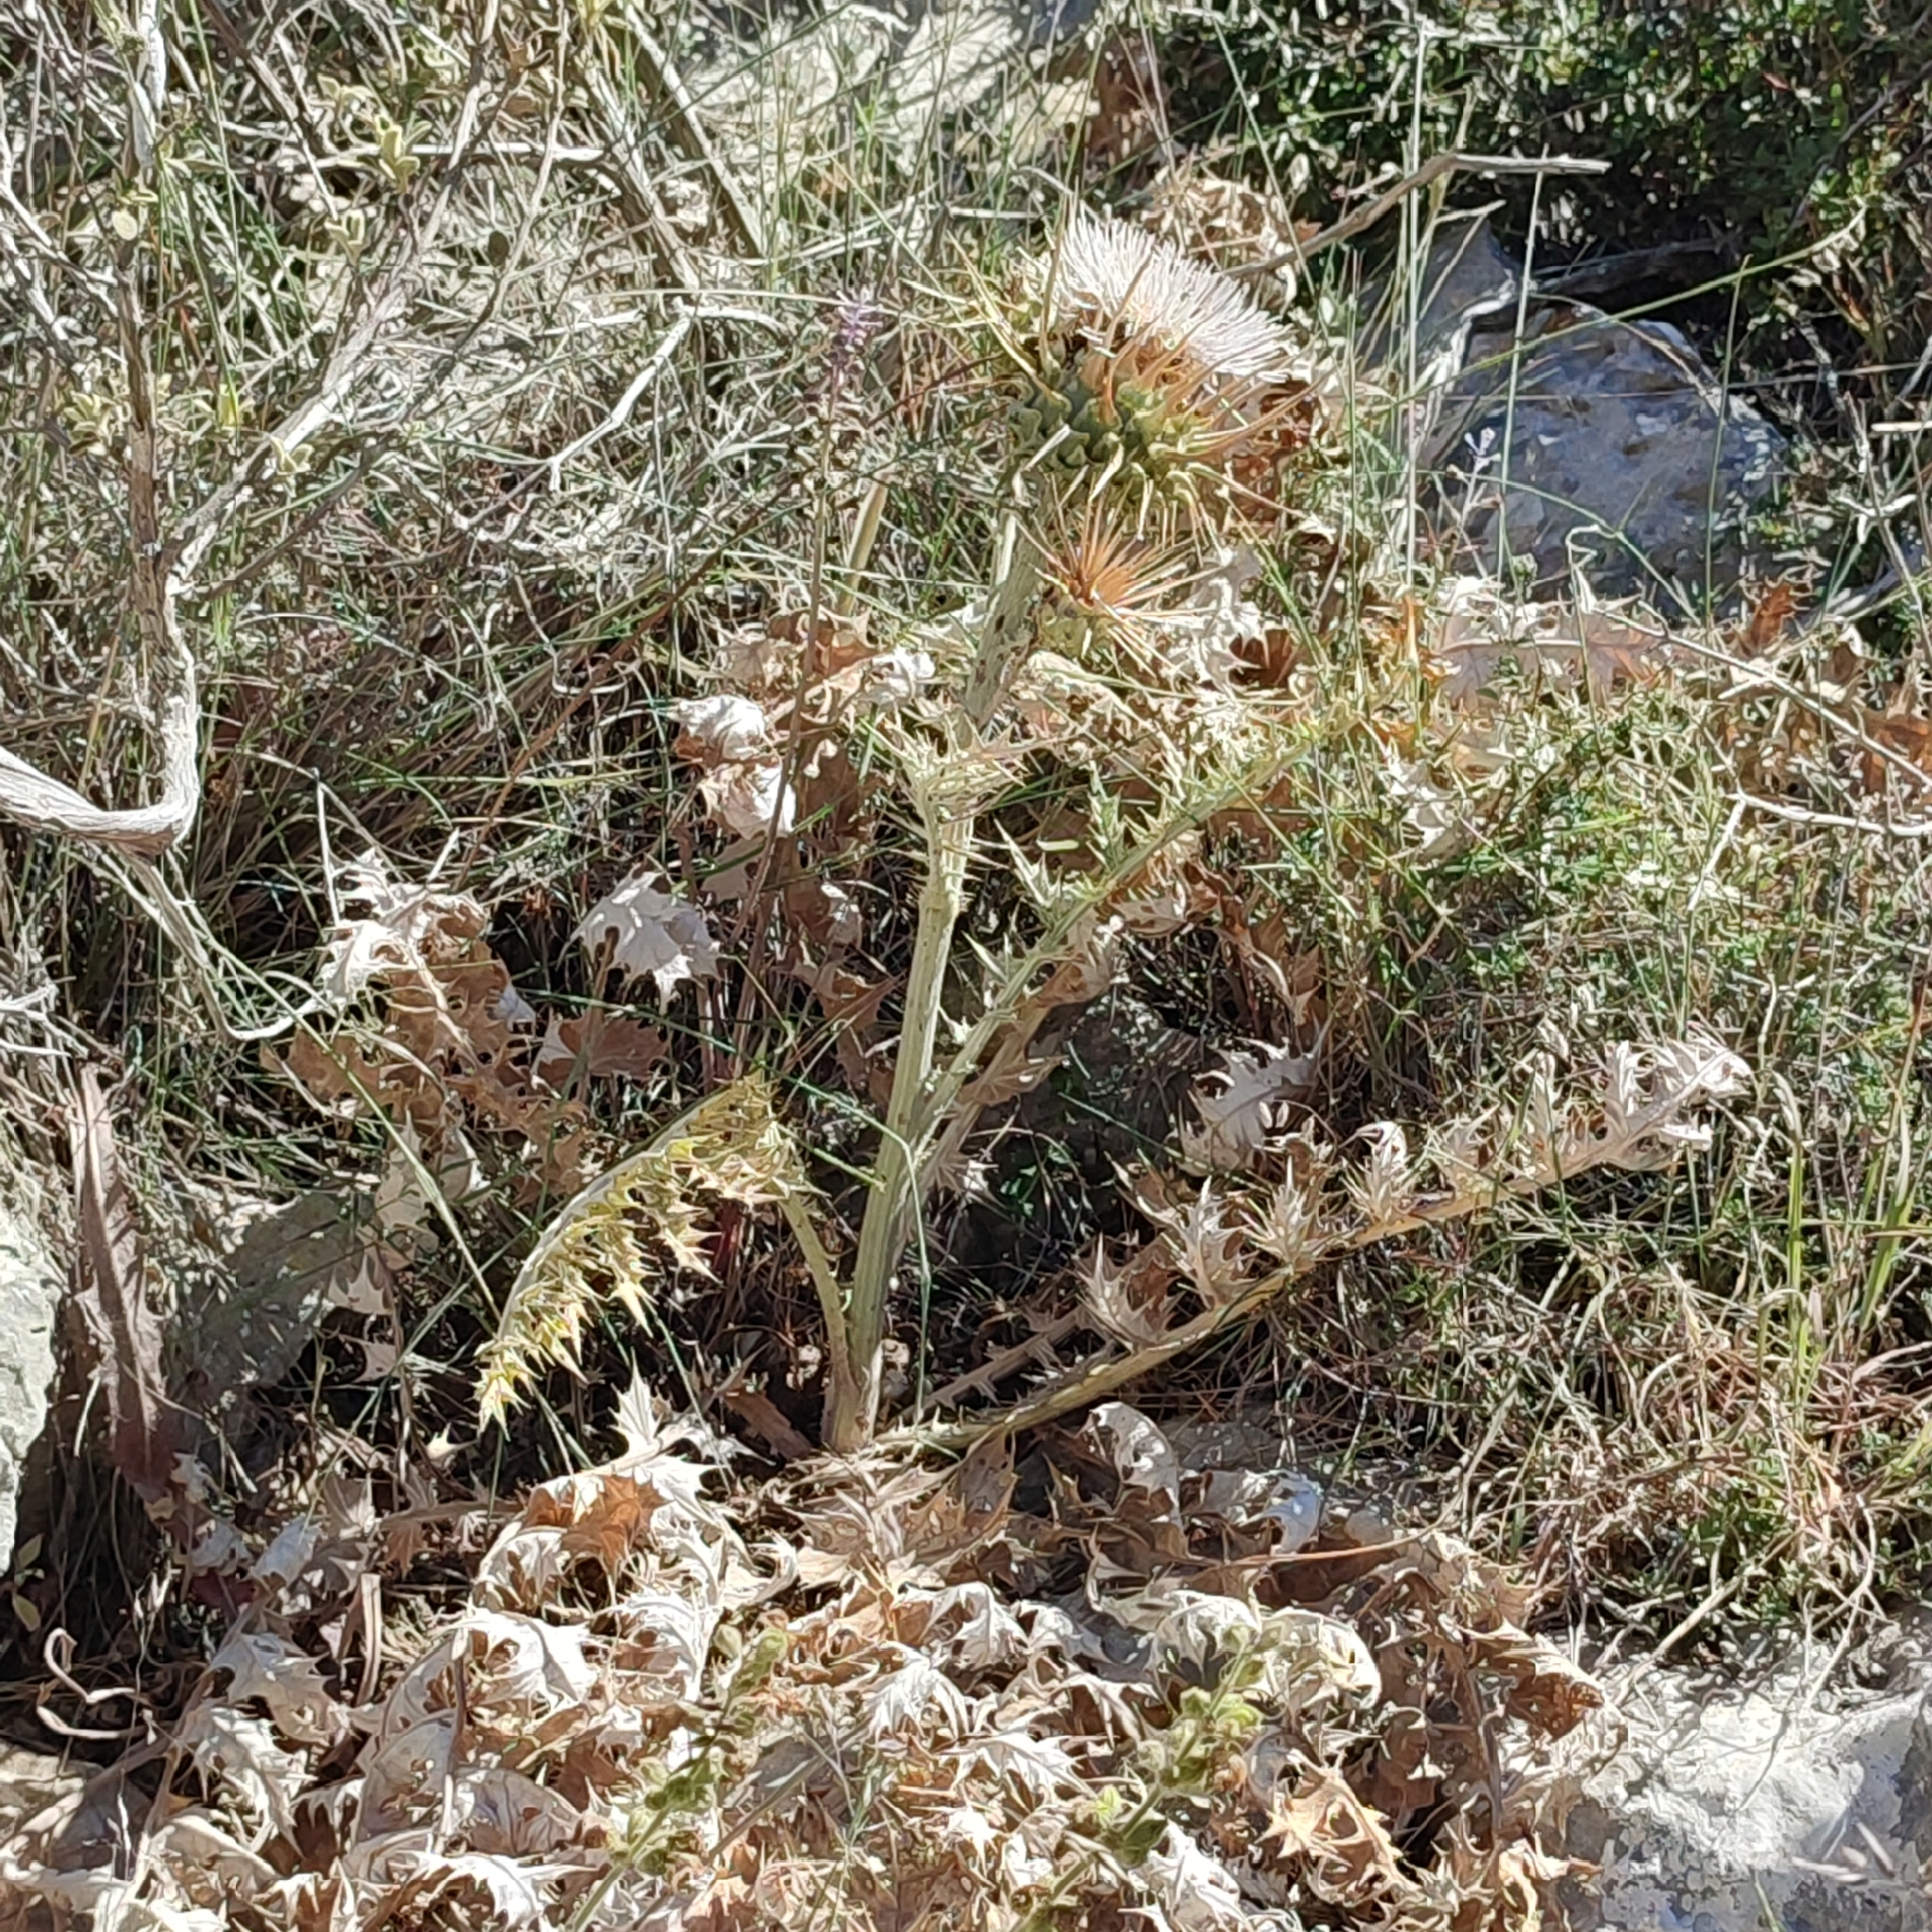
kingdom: Plantae
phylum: Tracheophyta
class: Magnoliopsida
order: Asterales
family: Asteraceae
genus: Cynara
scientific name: Cynara cornigera
